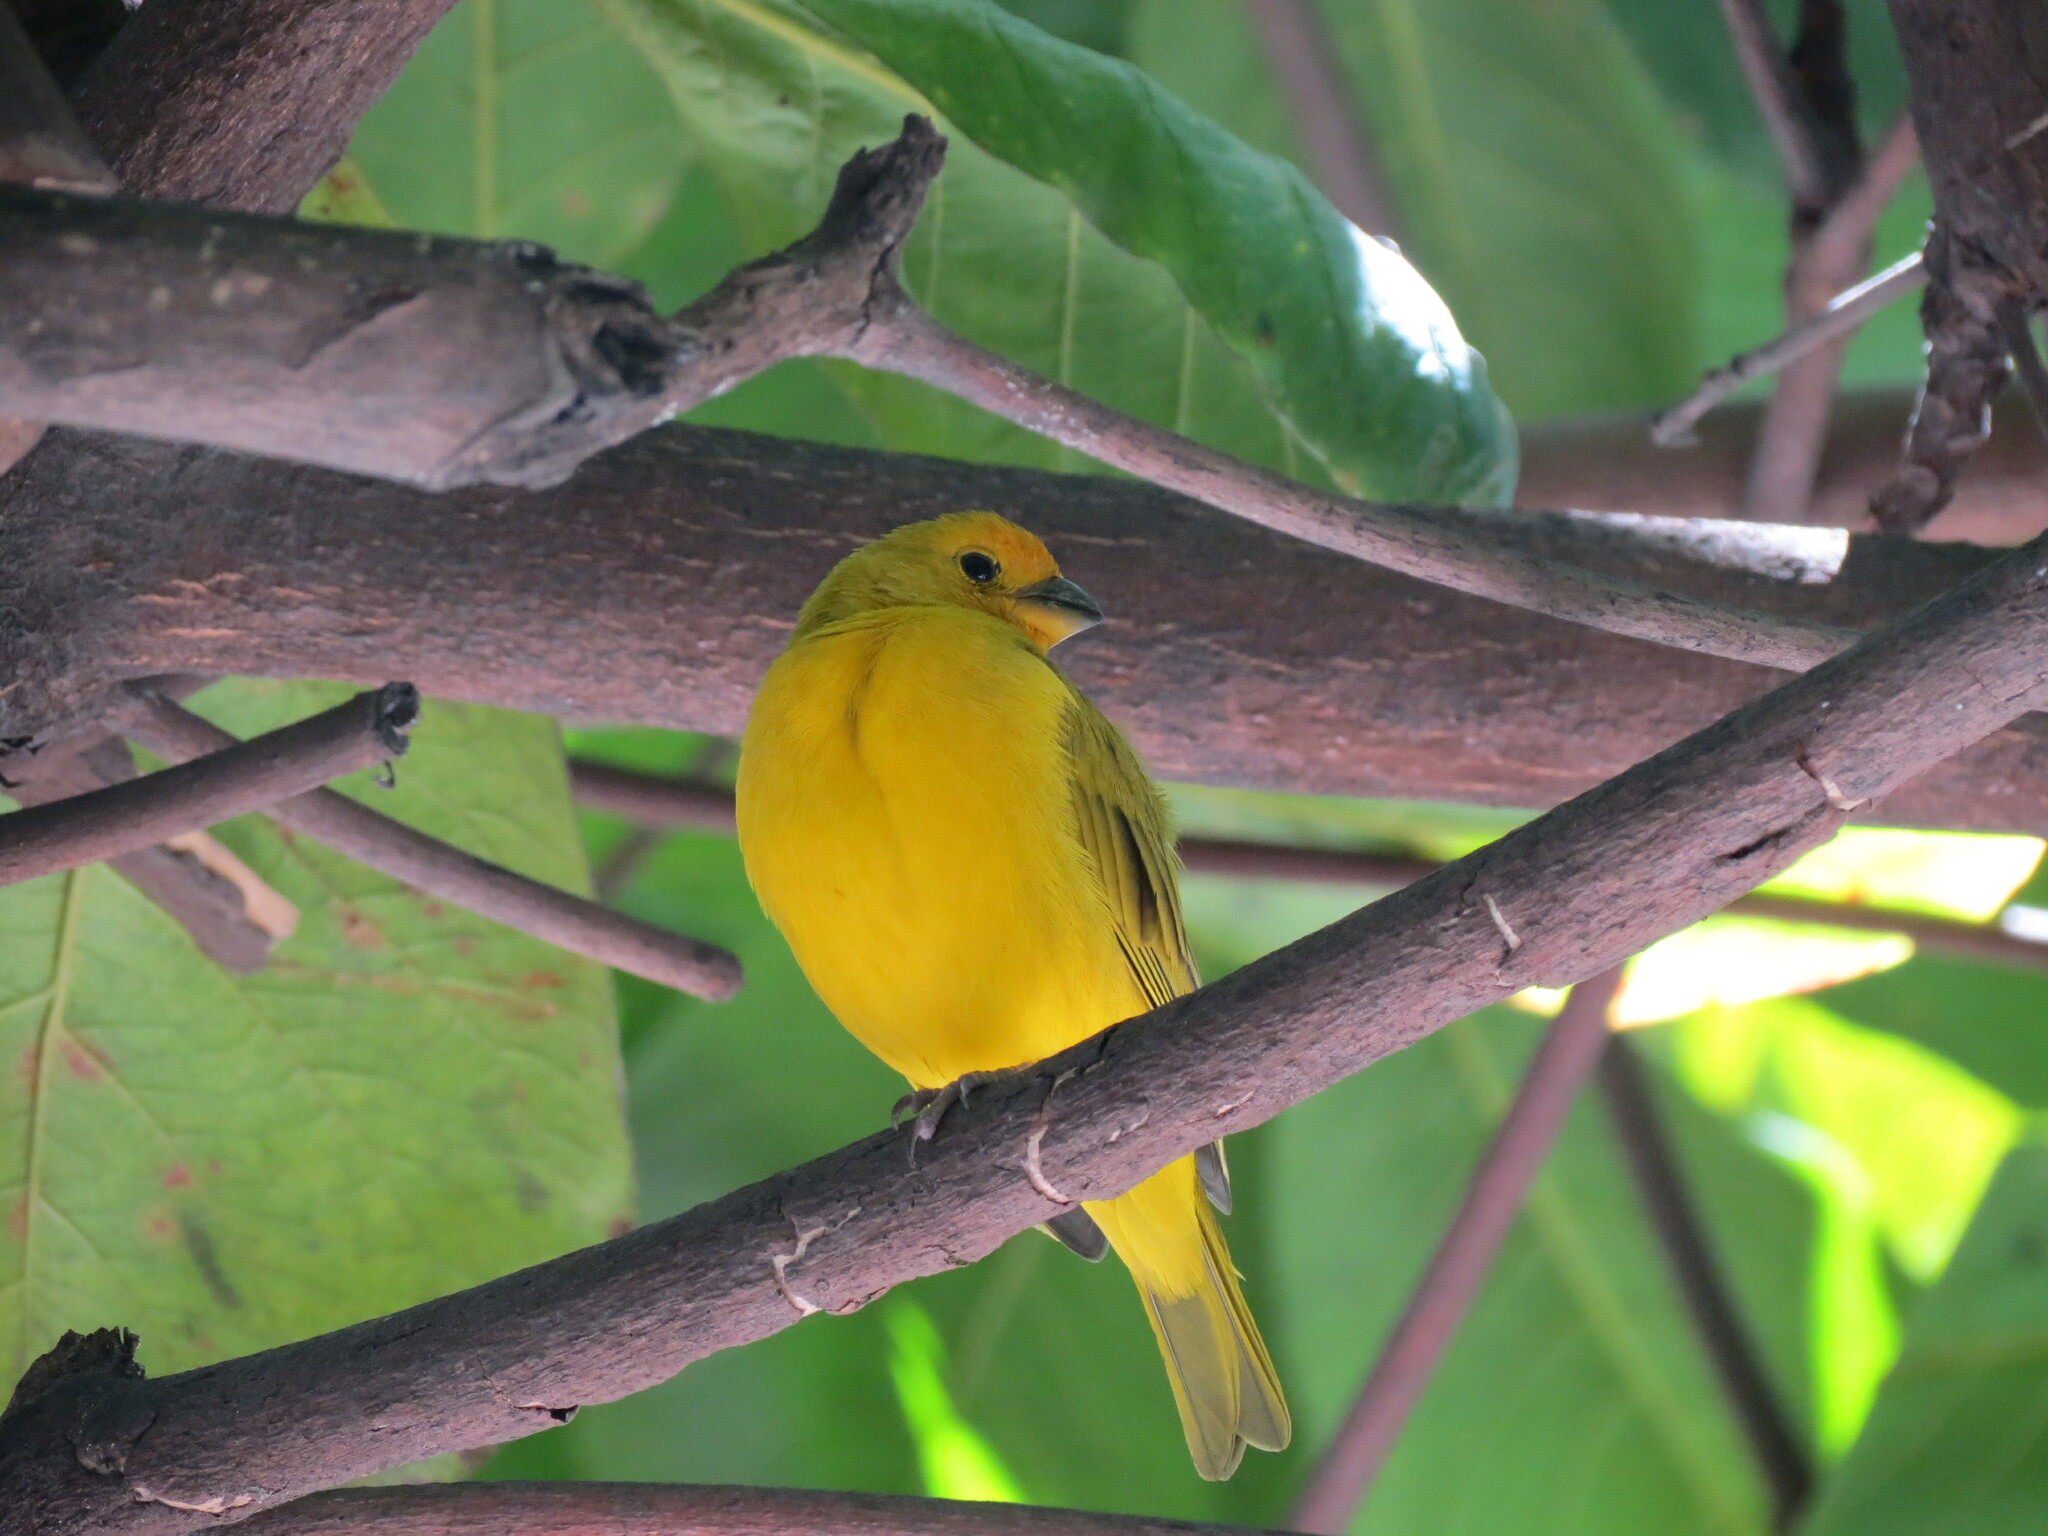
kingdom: Animalia
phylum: Chordata
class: Aves
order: Passeriformes
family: Thraupidae
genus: Sicalis
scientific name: Sicalis flaveola
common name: Saffron finch
